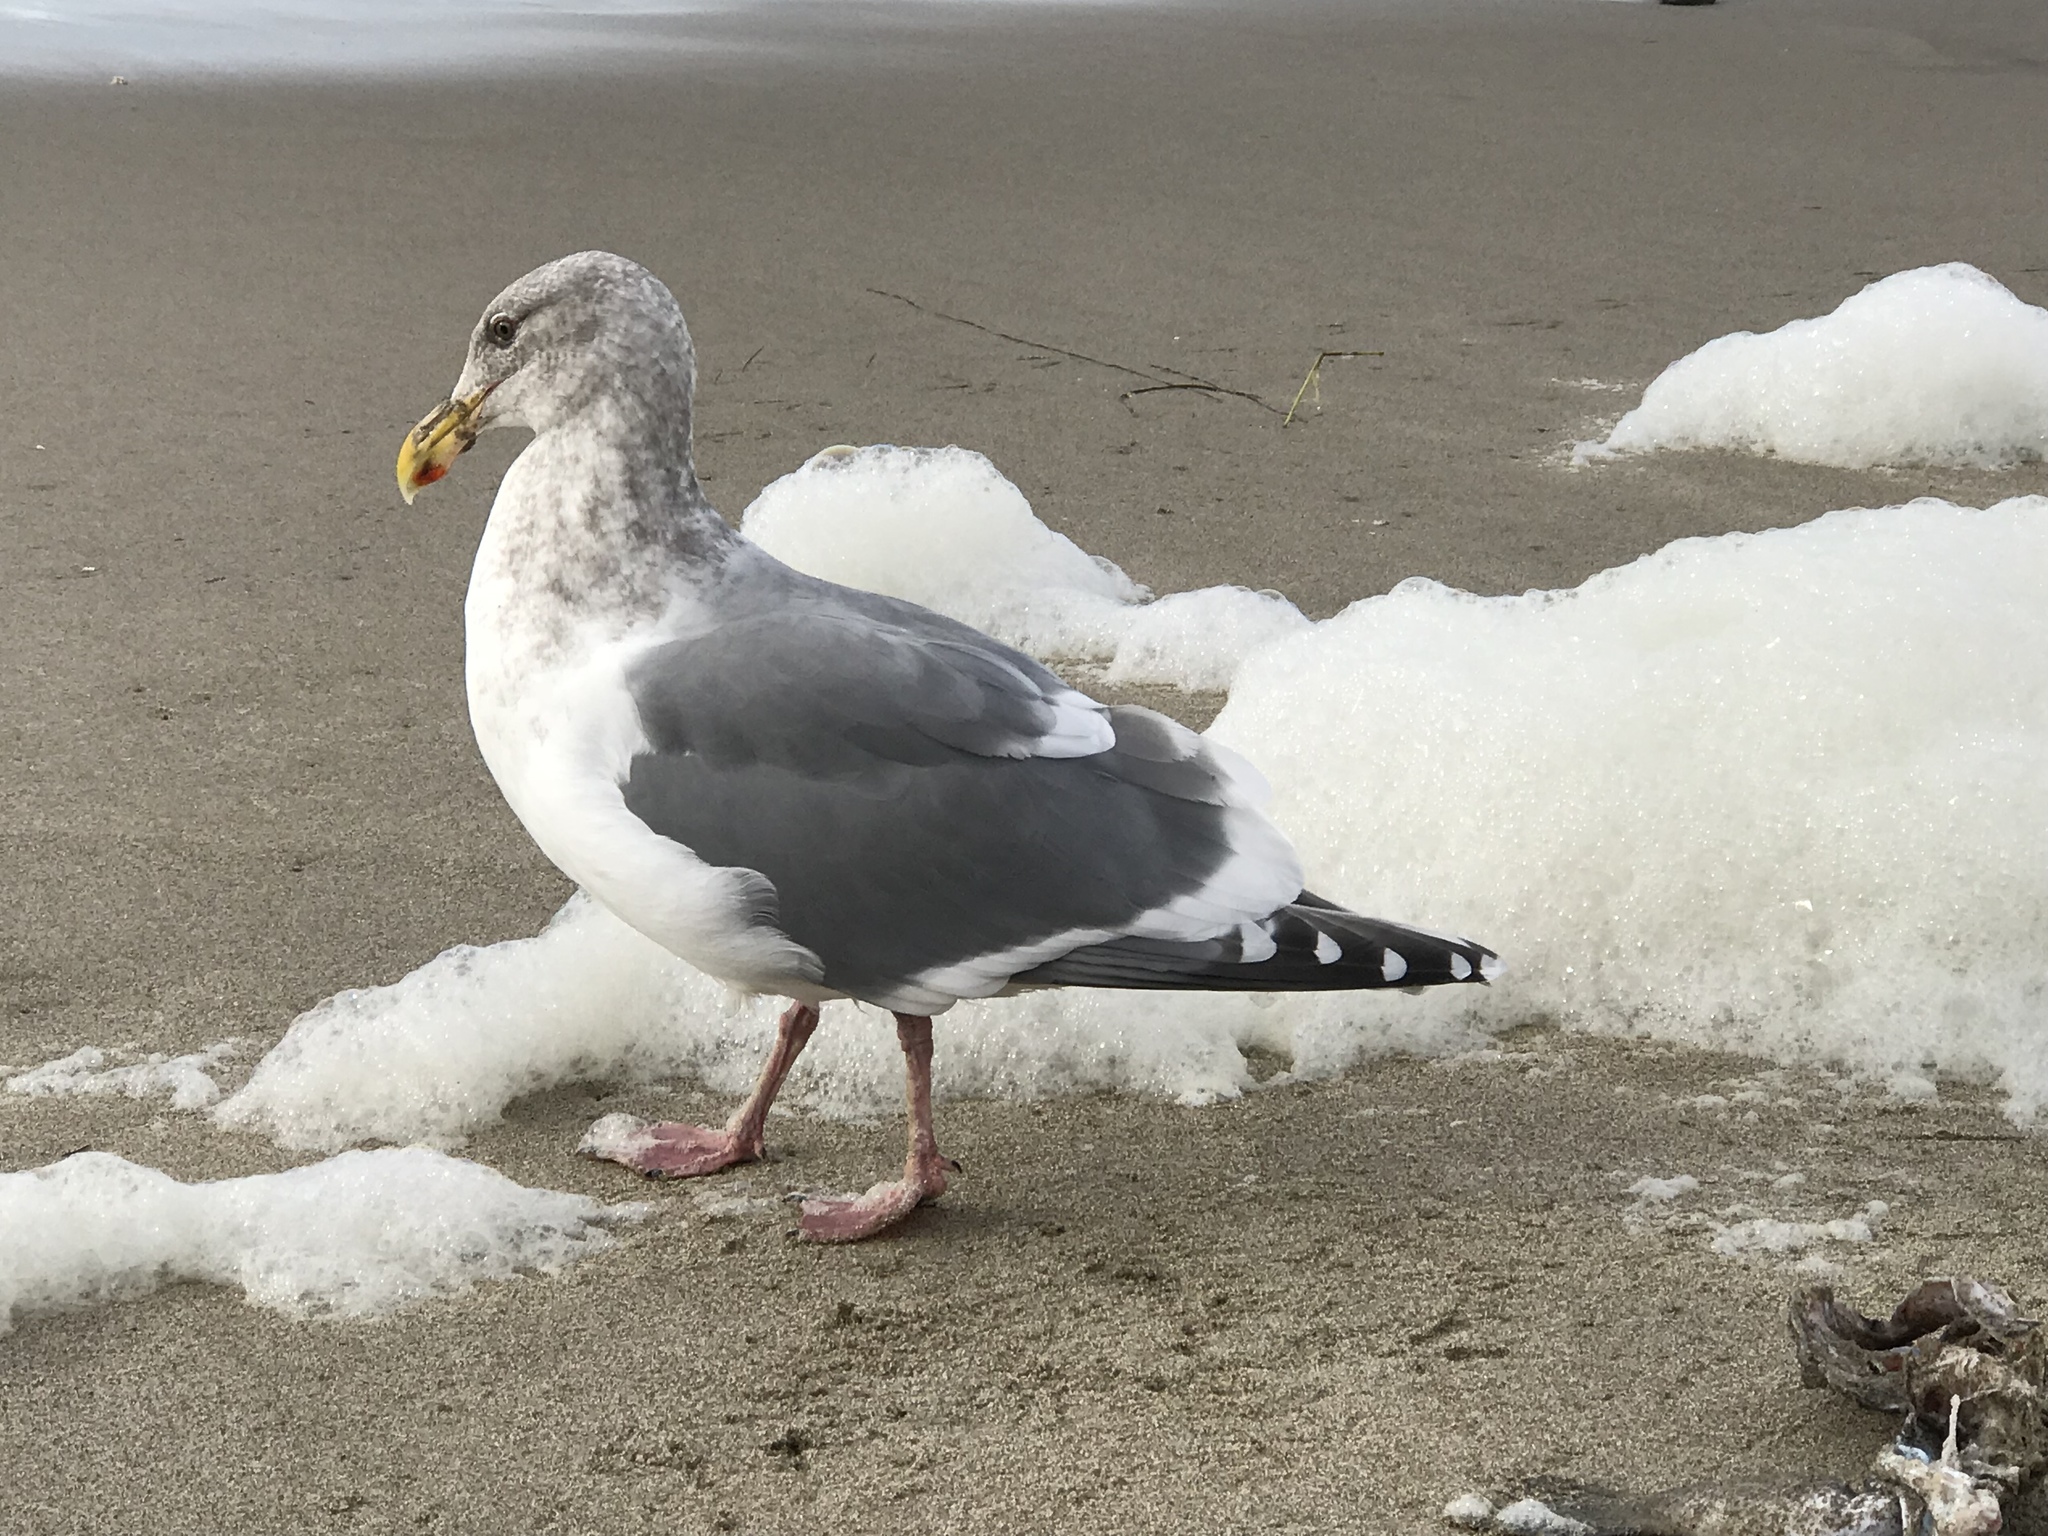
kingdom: Animalia
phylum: Chordata
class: Aves
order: Charadriiformes
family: Laridae
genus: Larus
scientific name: Larus
